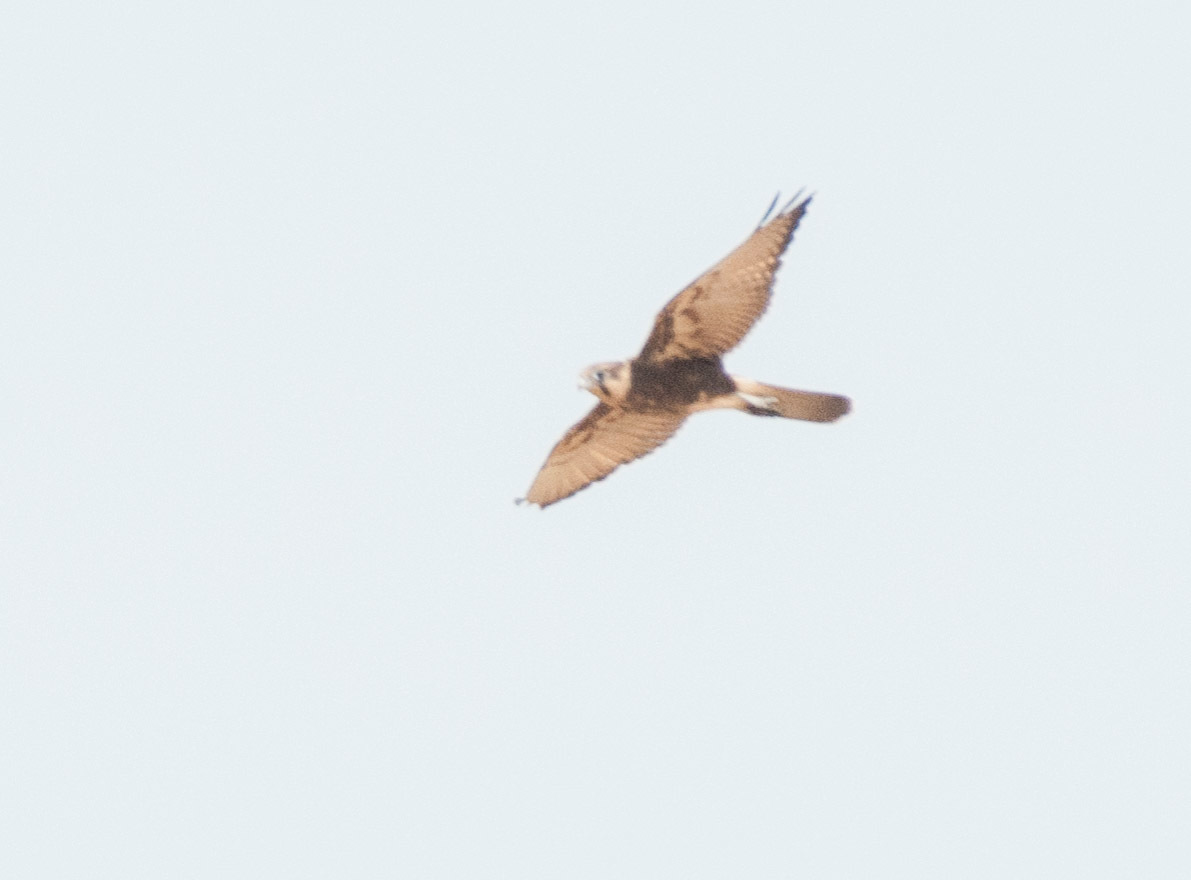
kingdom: Animalia
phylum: Chordata
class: Aves
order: Falconiformes
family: Falconidae
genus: Falco
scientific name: Falco berigora
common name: Brown falcon
